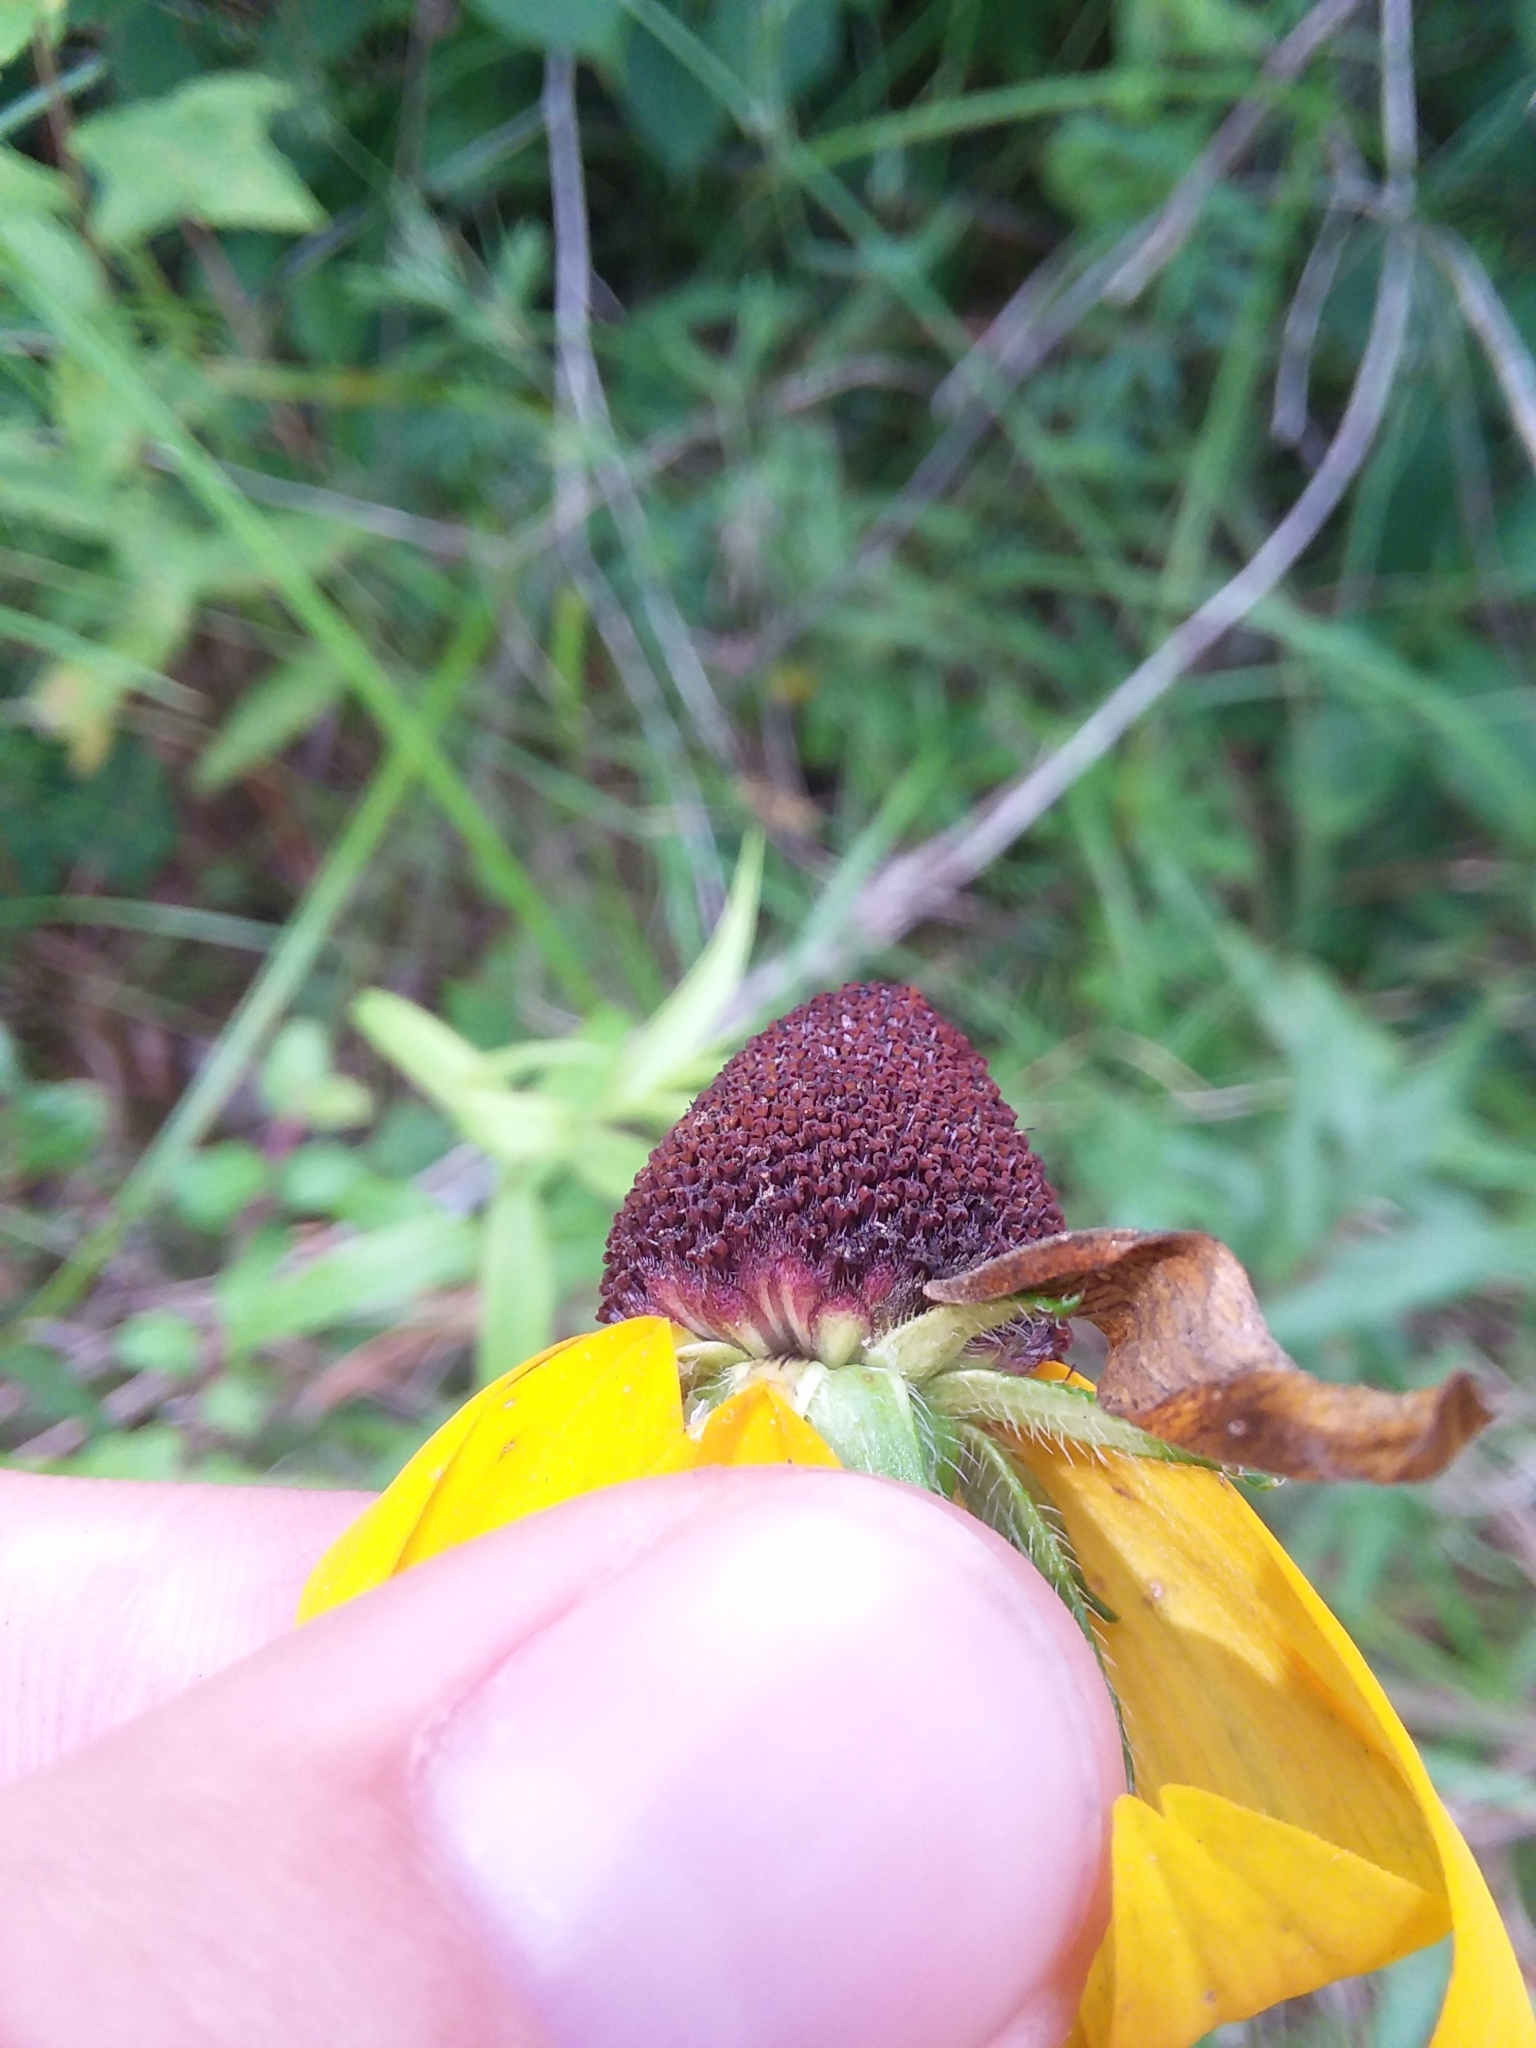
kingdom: Plantae
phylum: Tracheophyta
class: Magnoliopsida
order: Asterales
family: Asteraceae
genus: Rudbeckia
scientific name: Rudbeckia hirta
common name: Black-eyed-susan
